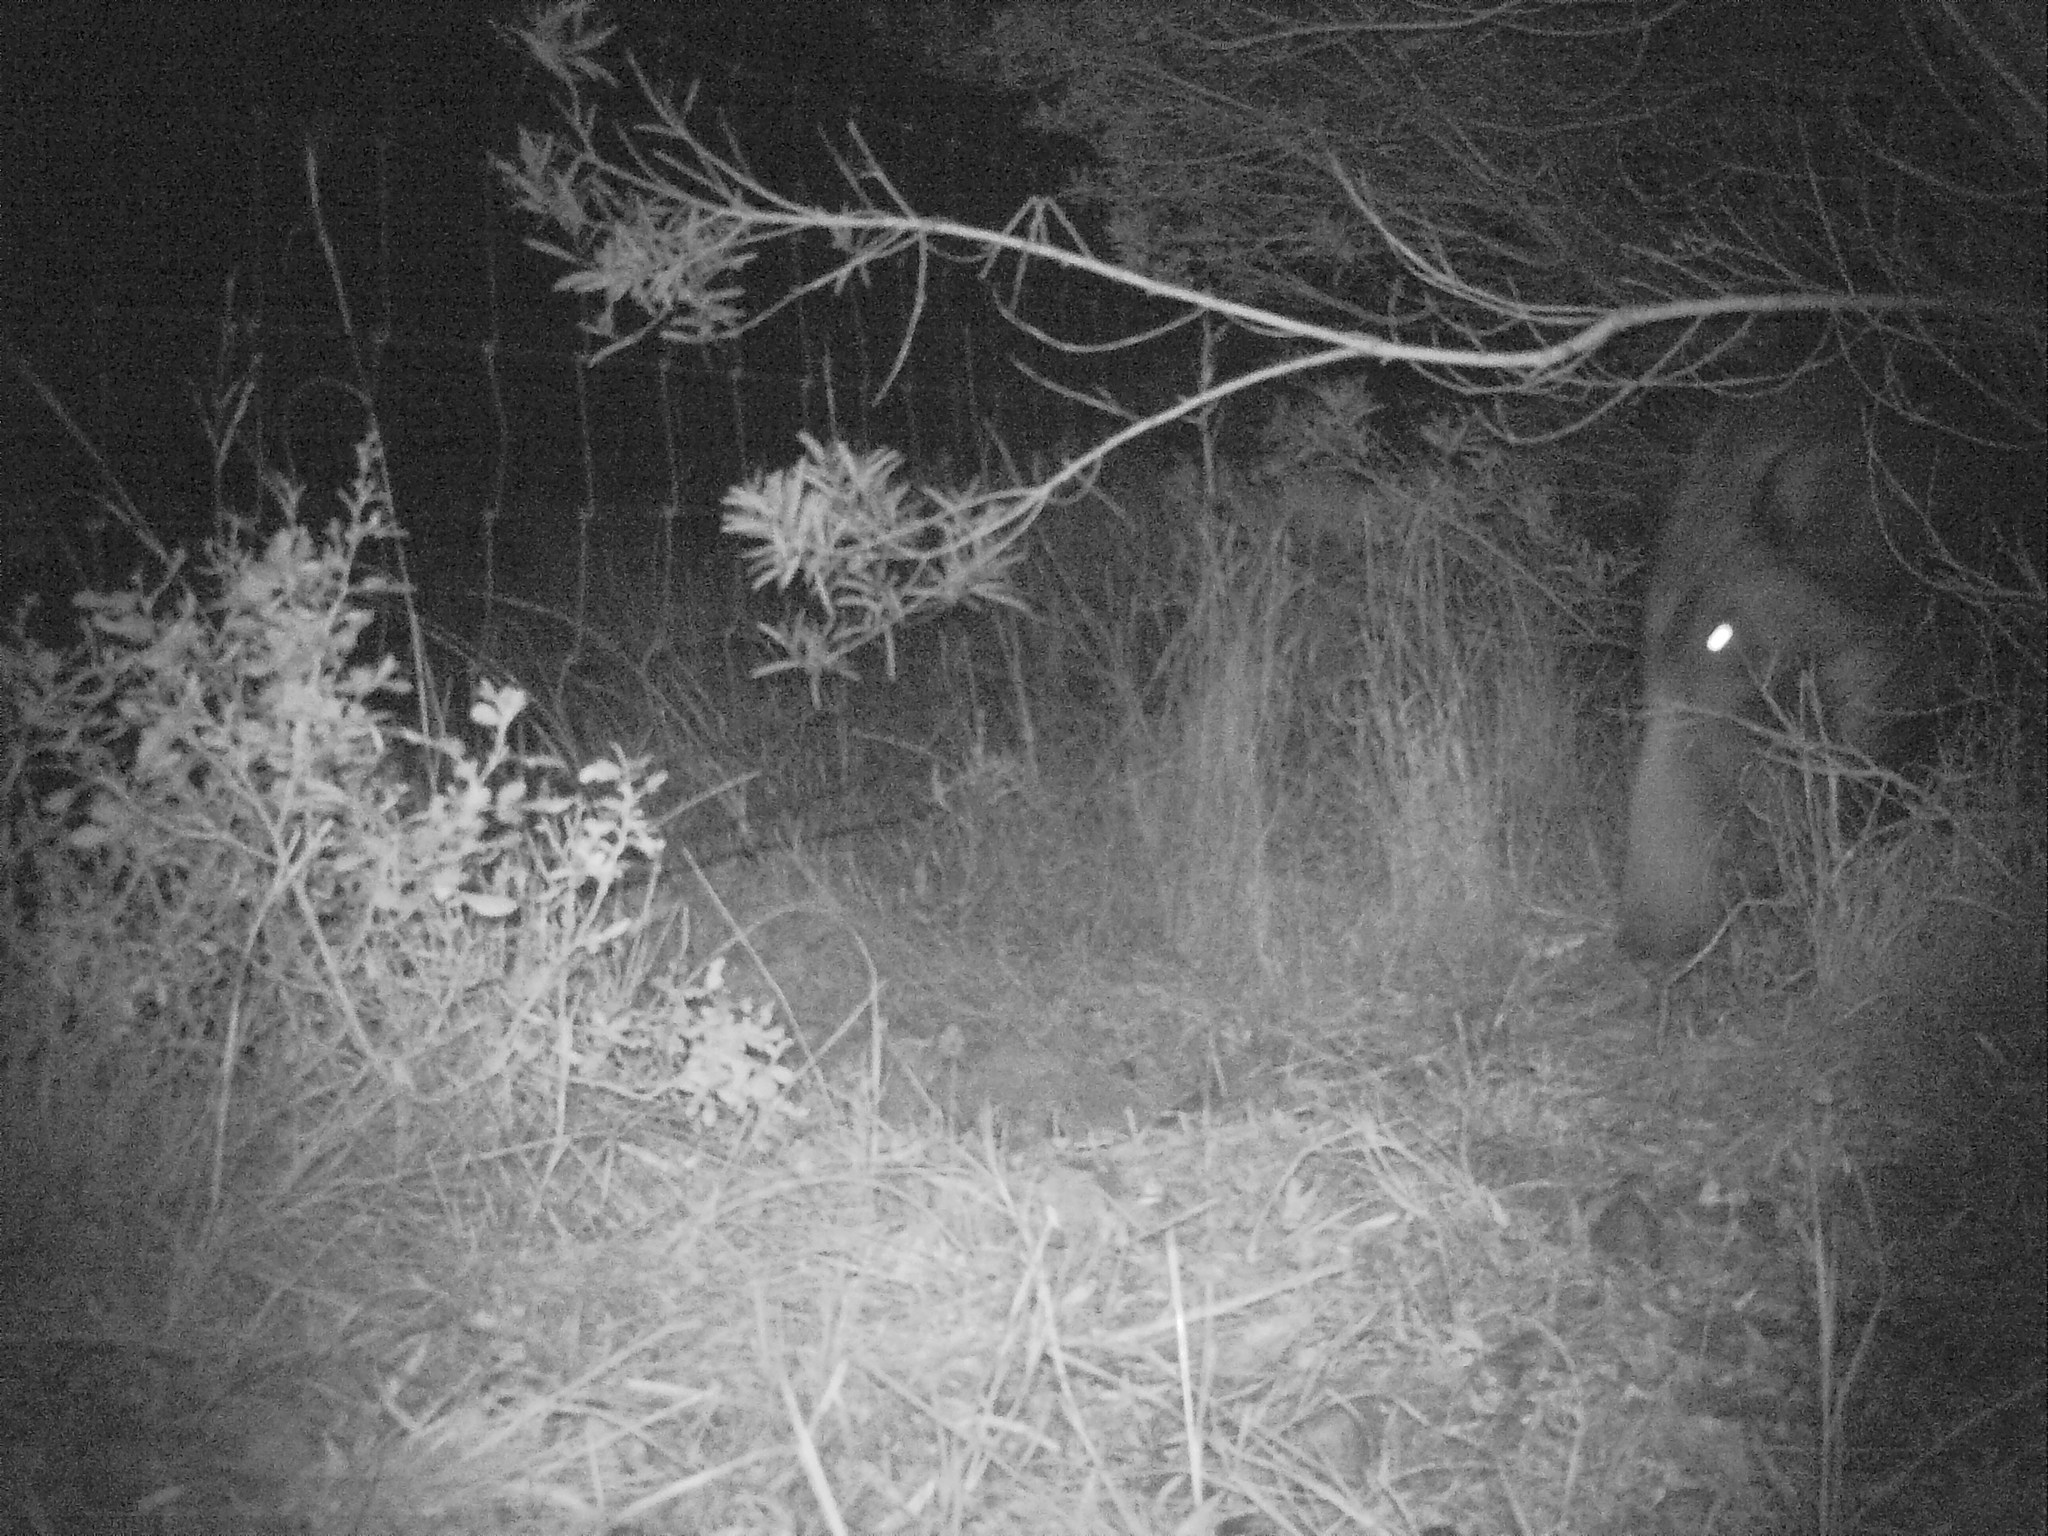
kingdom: Animalia
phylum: Chordata
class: Mammalia
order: Artiodactyla
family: Suidae
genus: Potamochoerus
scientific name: Potamochoerus larvatus
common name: Bushpig
